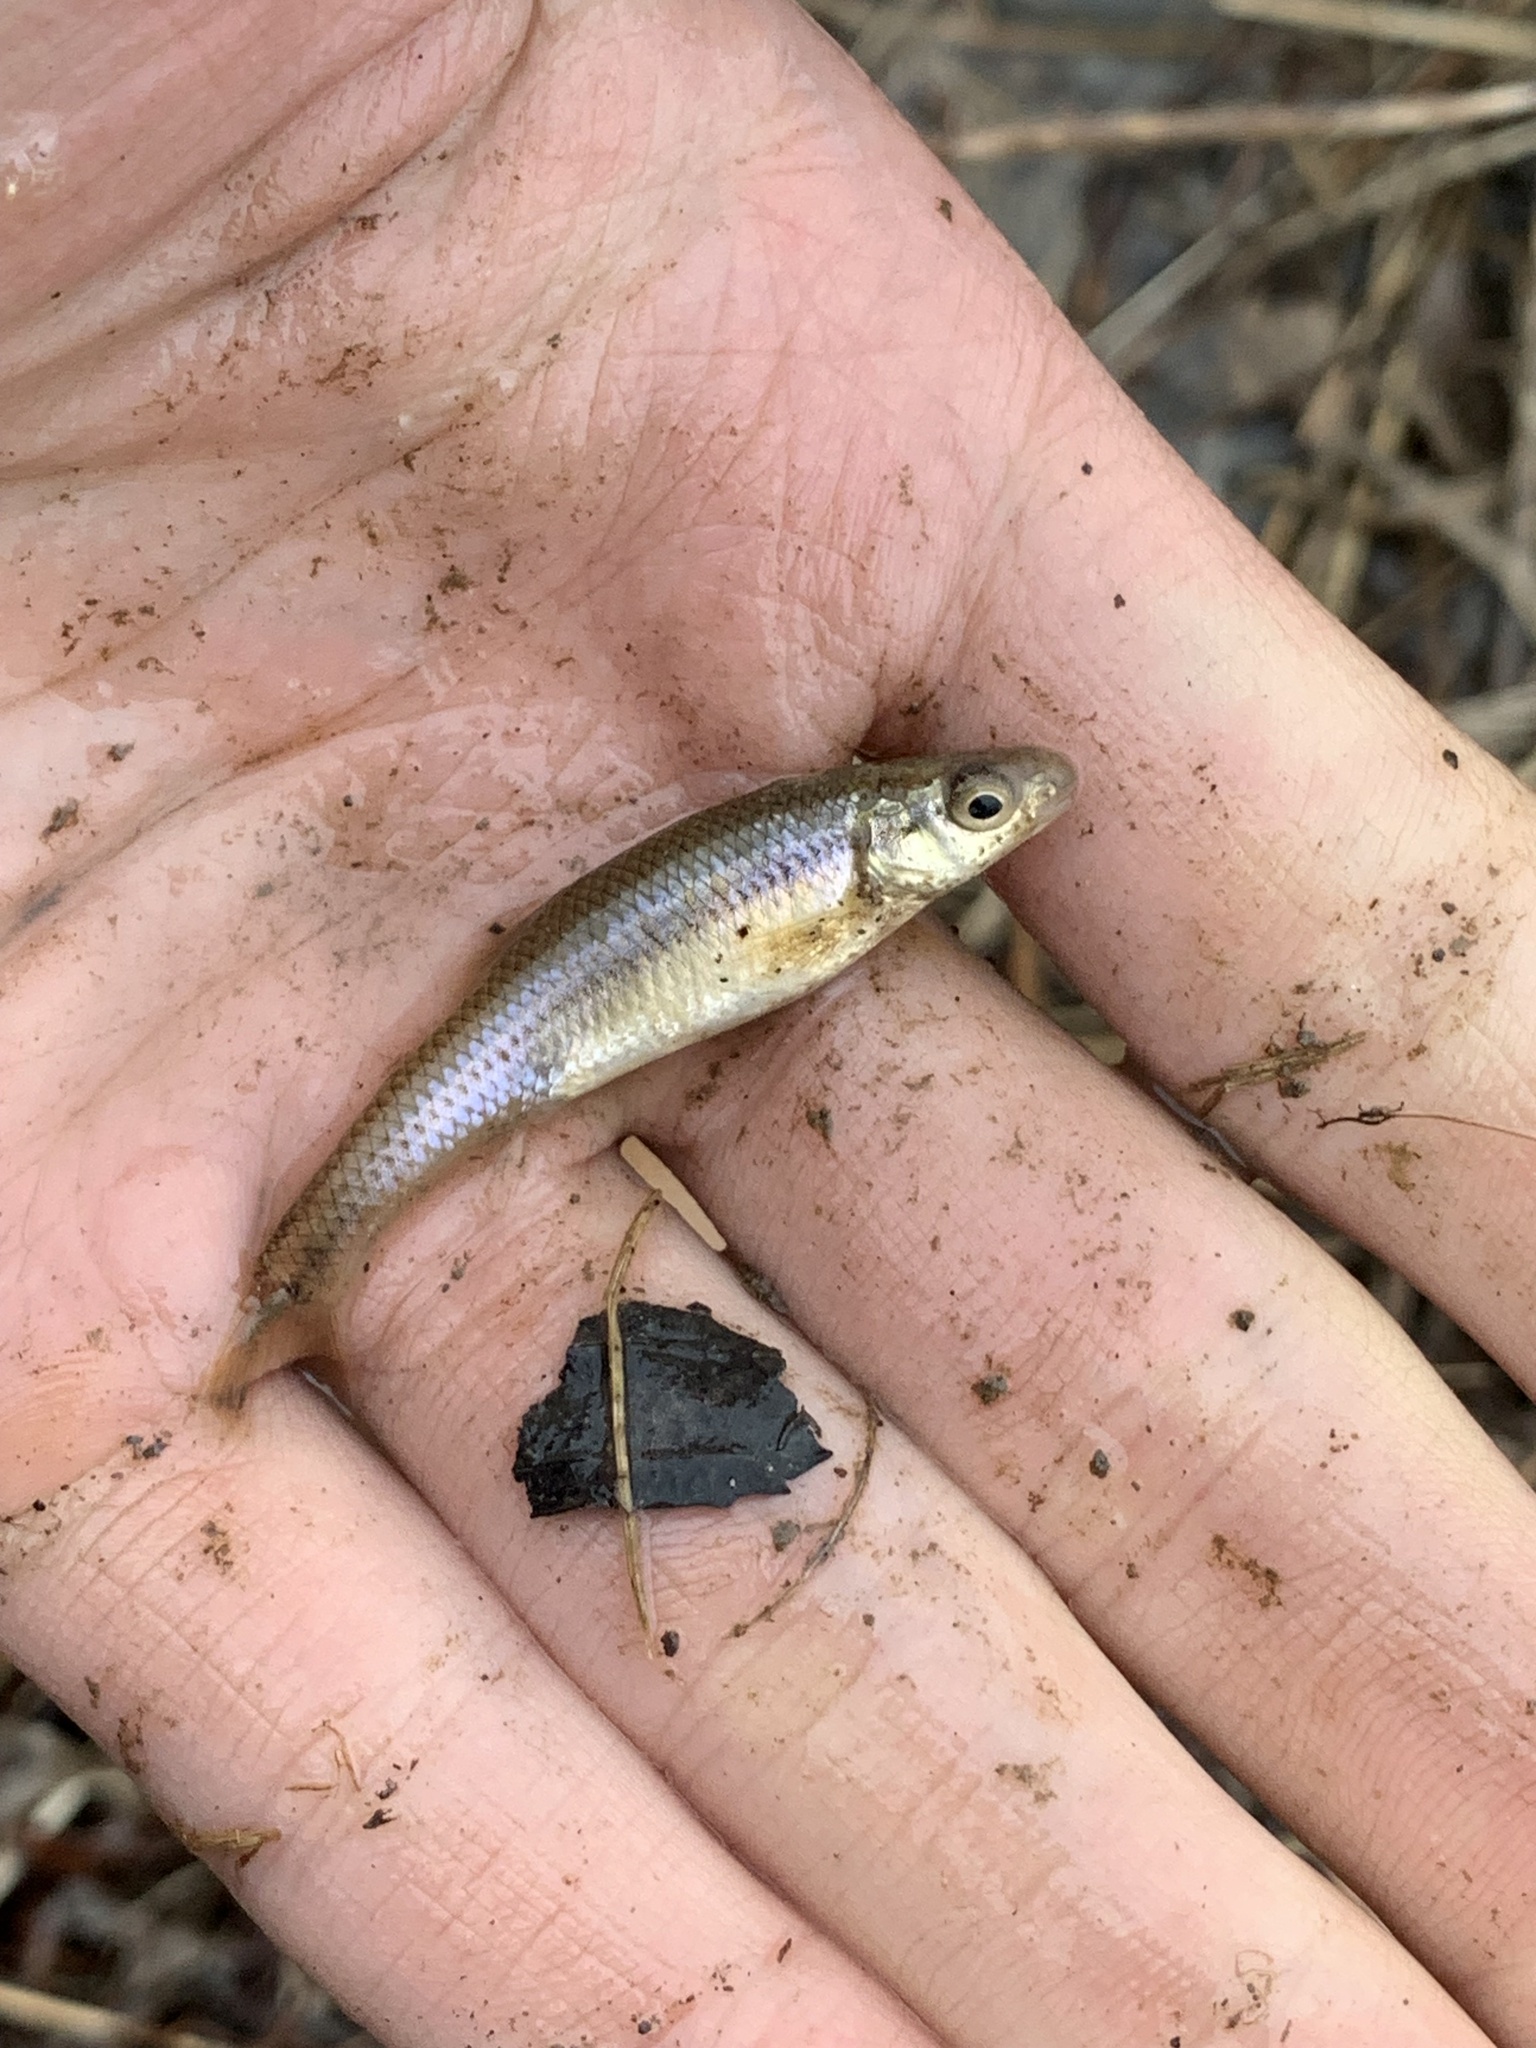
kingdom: Animalia
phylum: Chordata
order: Cypriniformes
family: Cyprinidae
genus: Pimephales
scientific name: Pimephales notatus
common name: Bluntnose minnow
